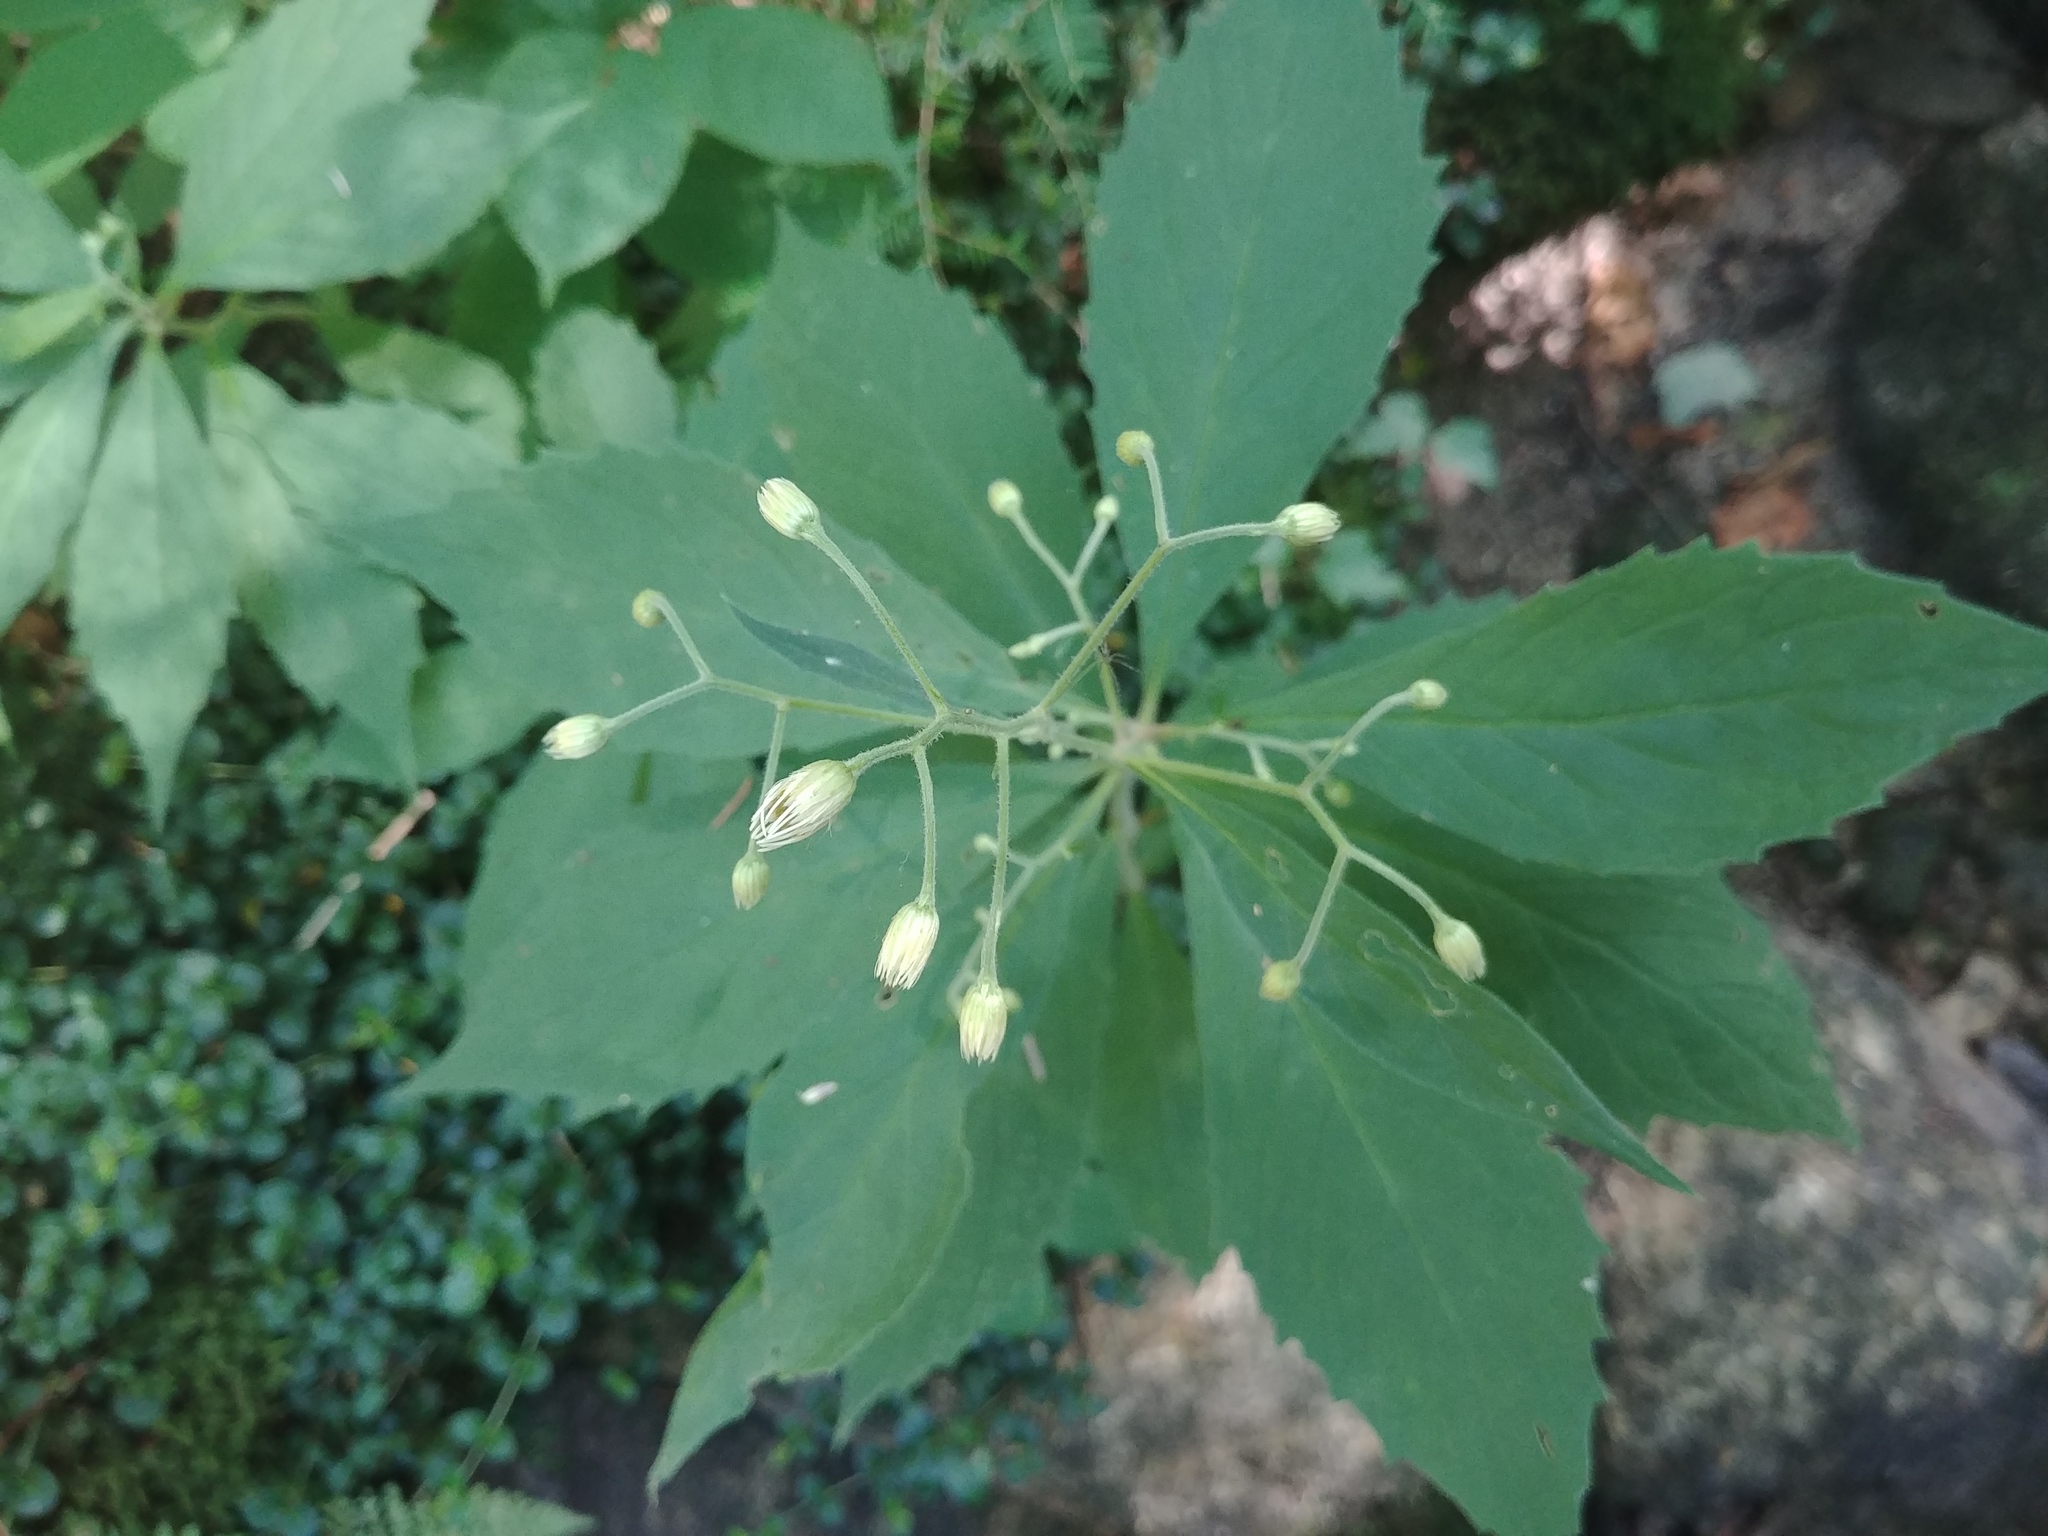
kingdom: Plantae
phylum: Tracheophyta
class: Magnoliopsida
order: Asterales
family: Asteraceae
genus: Oclemena
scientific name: Oclemena acuminata
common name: Mountain aster
